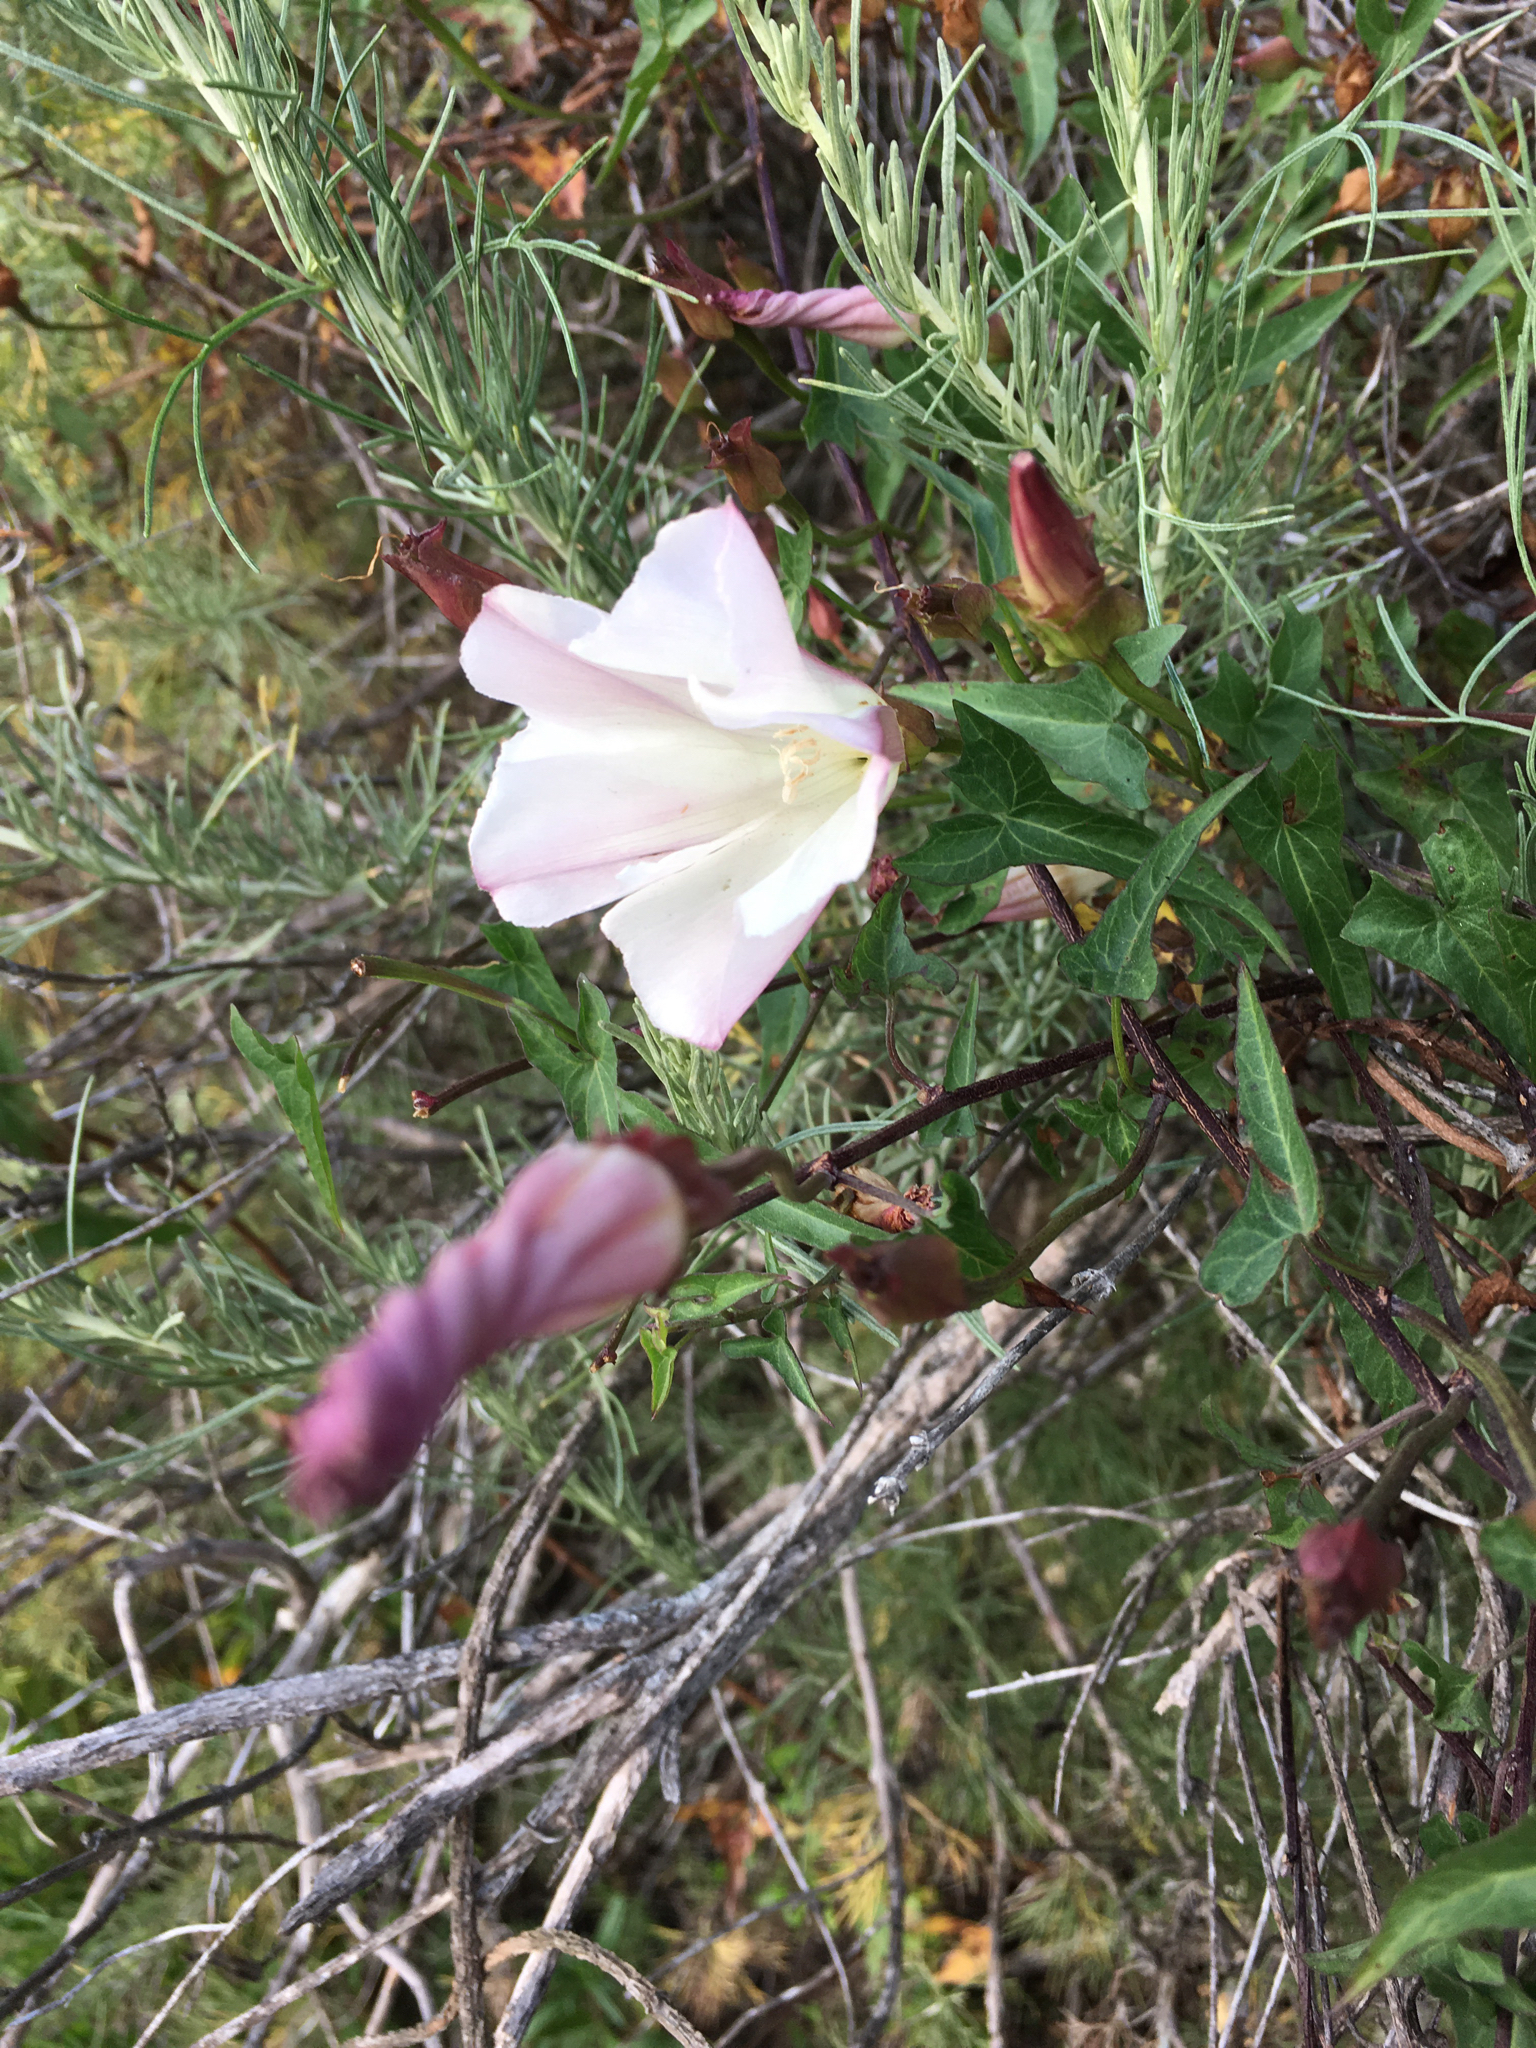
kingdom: Plantae
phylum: Tracheophyta
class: Magnoliopsida
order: Solanales
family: Convolvulaceae
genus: Calystegia
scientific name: Calystegia macrostegia
